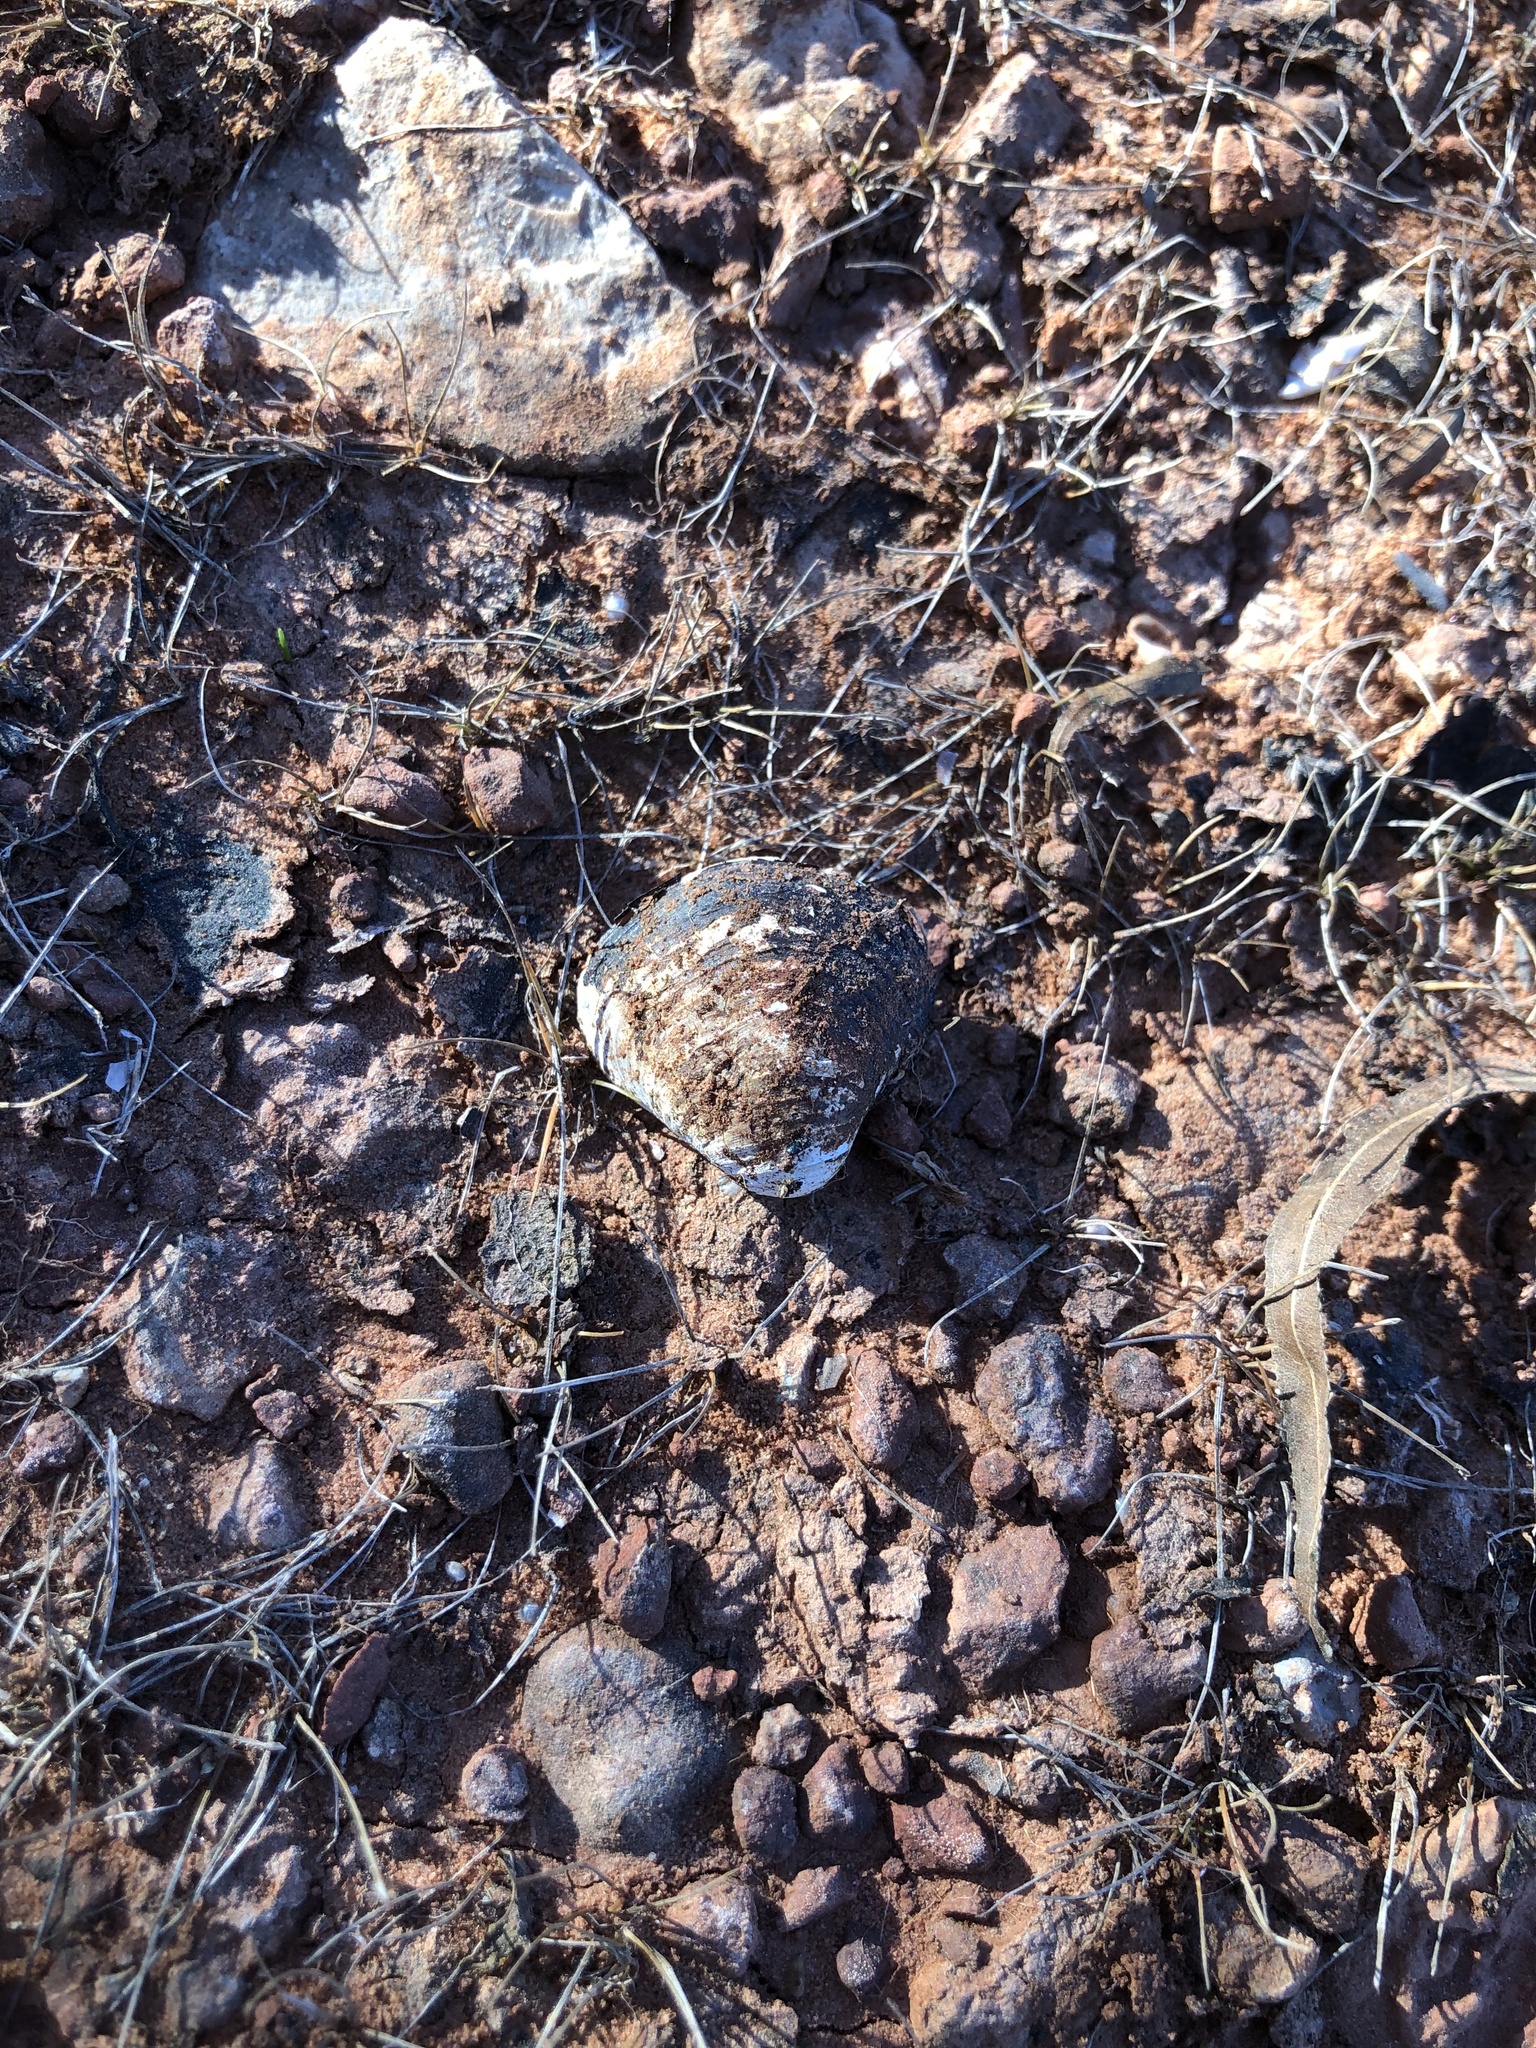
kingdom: Animalia
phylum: Mollusca
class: Bivalvia
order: Venerida
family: Cyrenidae
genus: Corbicula
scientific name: Corbicula fluminea
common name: Asian clam
